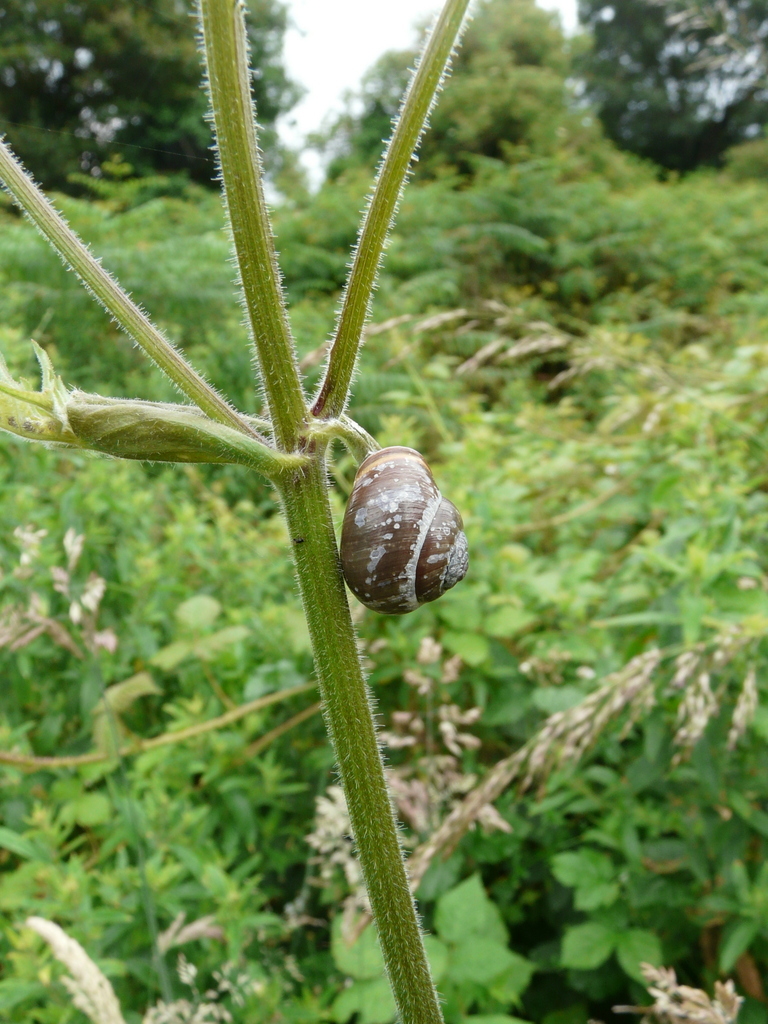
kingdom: Animalia
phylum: Mollusca
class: Gastropoda
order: Stylommatophora
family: Helicidae
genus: Cepaea
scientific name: Cepaea nemoralis
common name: Grovesnail
